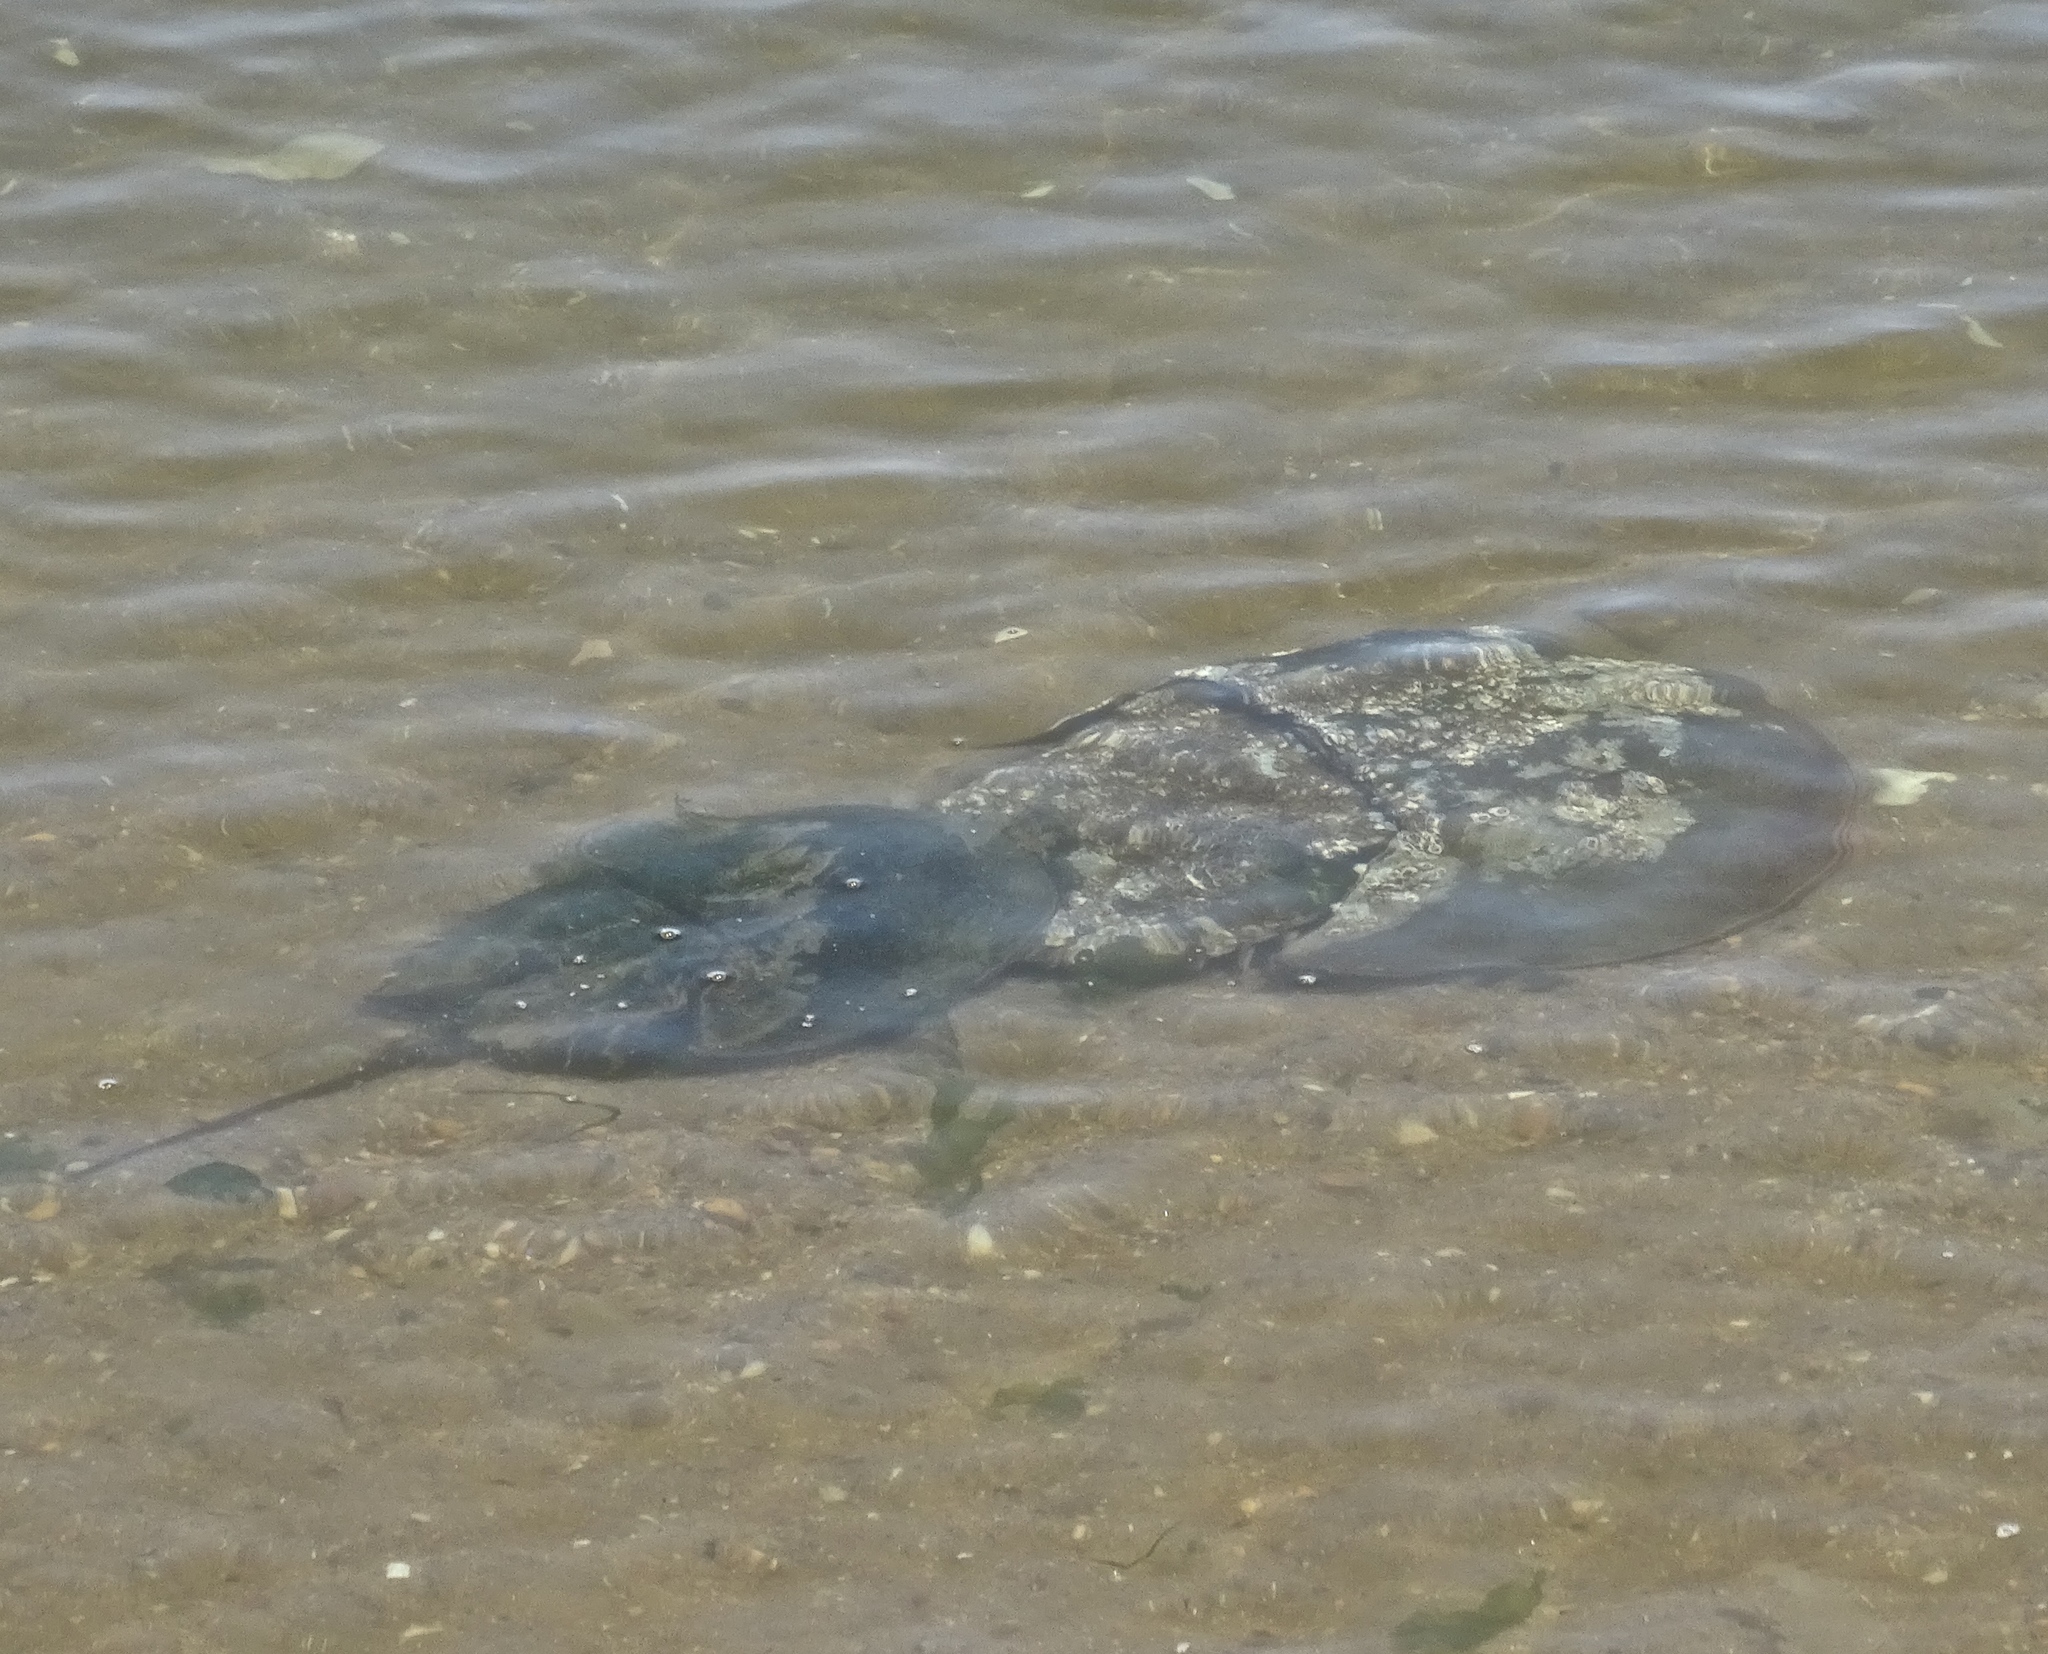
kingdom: Animalia
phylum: Arthropoda
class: Merostomata
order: Xiphosurida
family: Limulidae
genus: Limulus
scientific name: Limulus polyphemus
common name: Horseshoe crab
